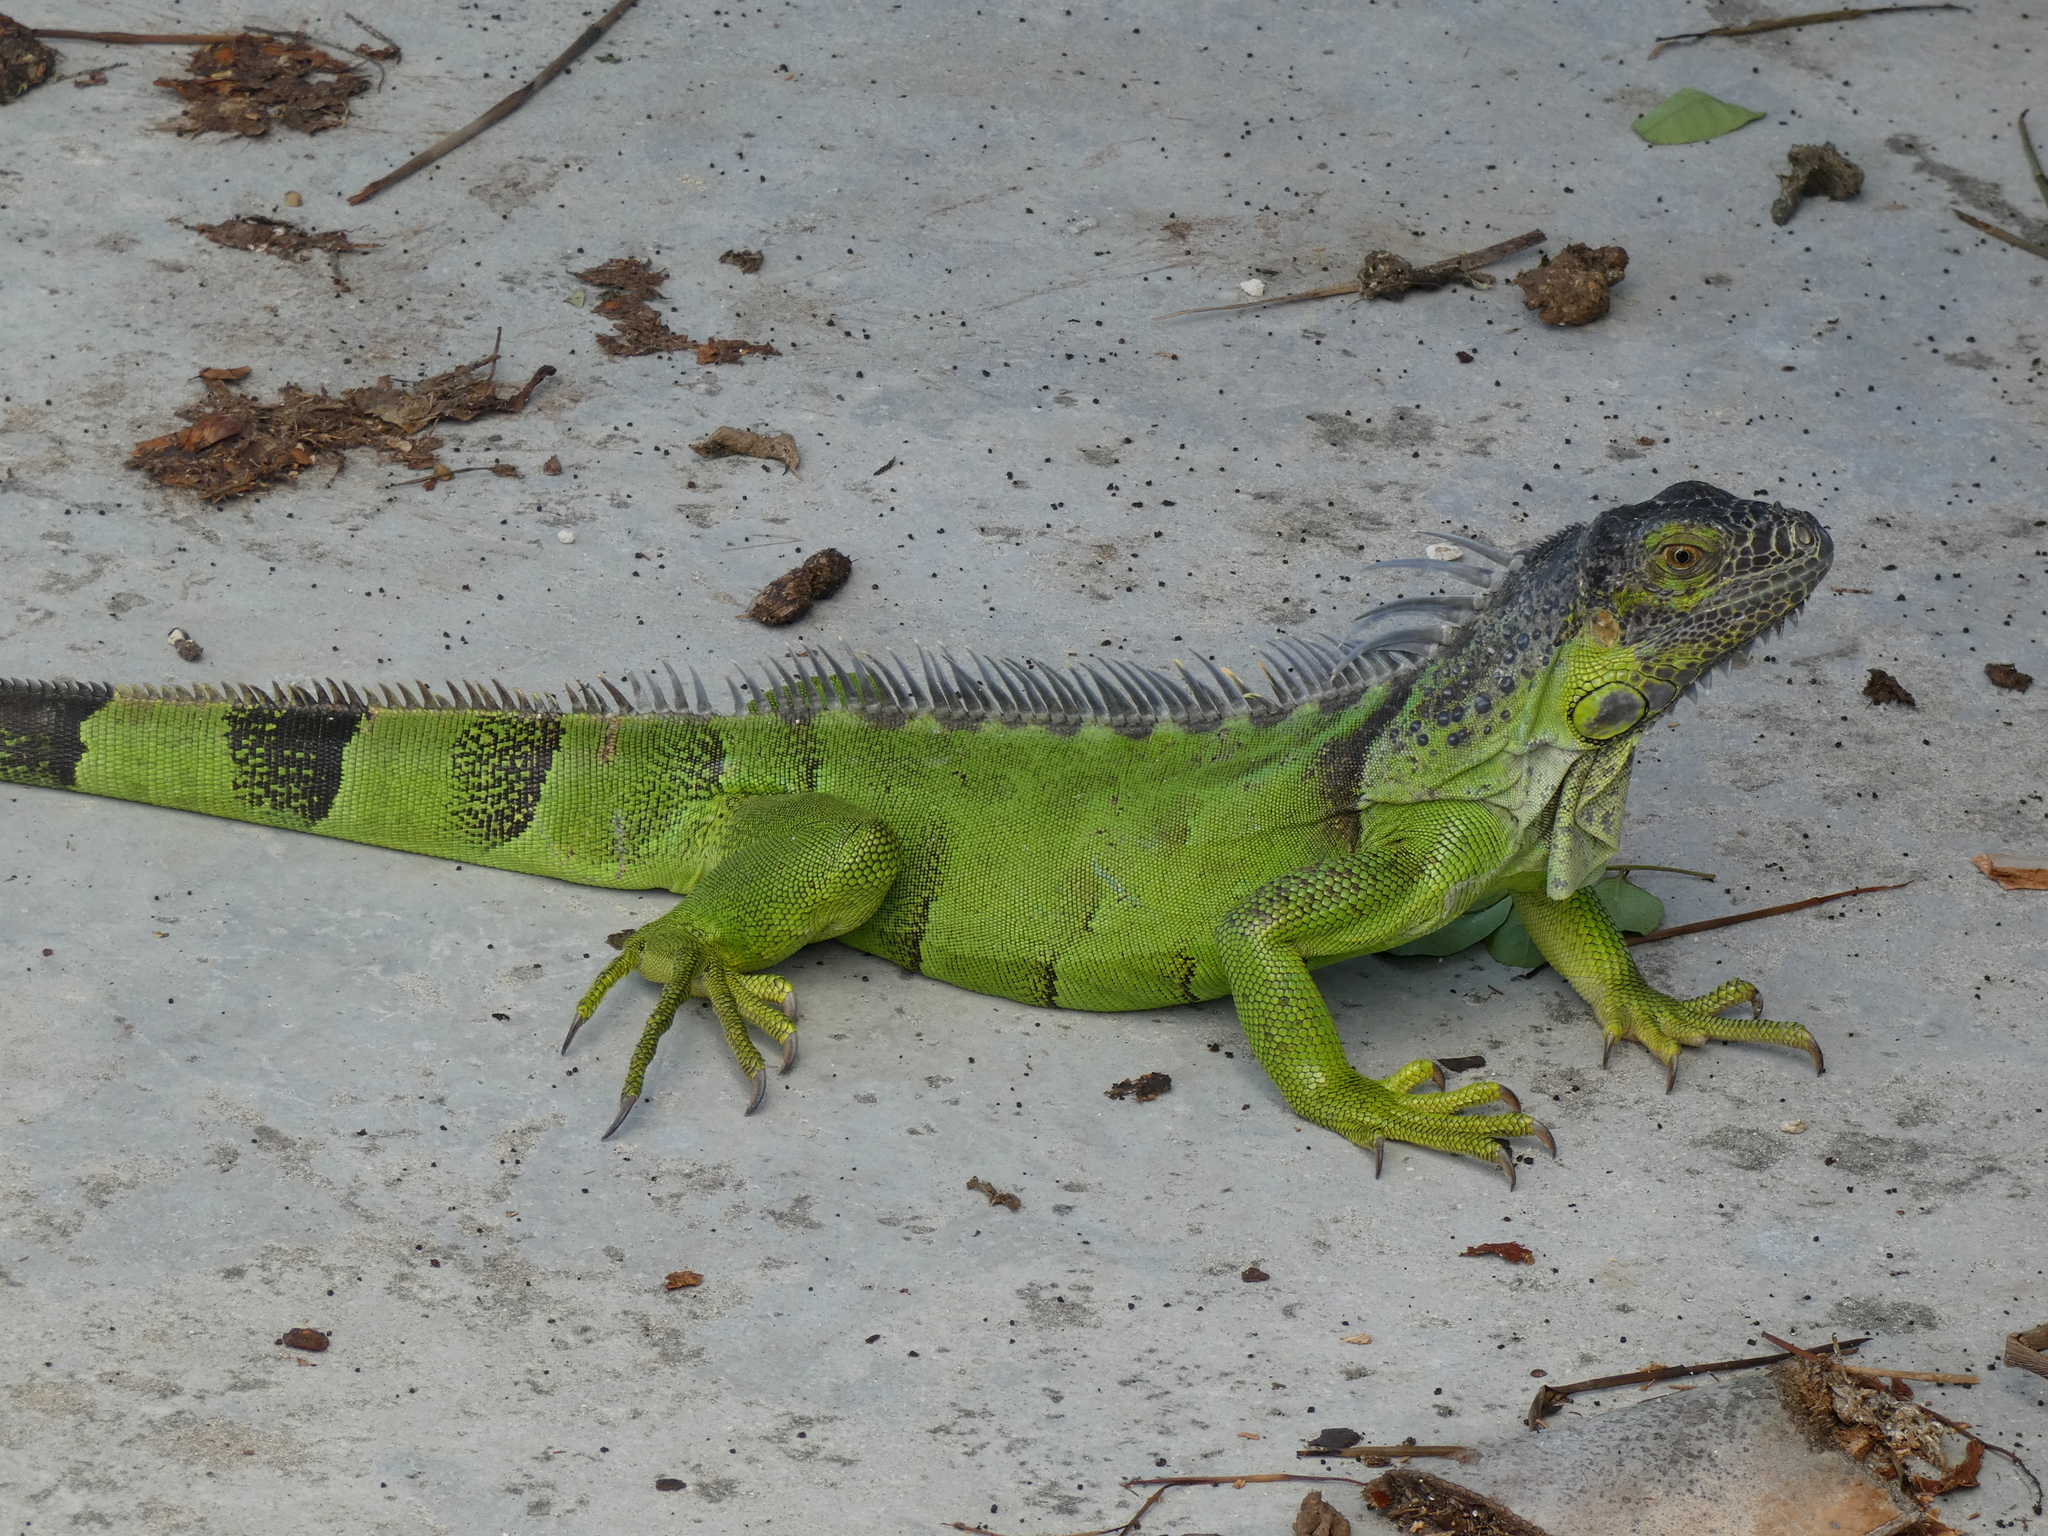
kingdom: Animalia
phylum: Chordata
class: Squamata
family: Iguanidae
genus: Iguana
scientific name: Iguana iguana
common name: Green iguana
